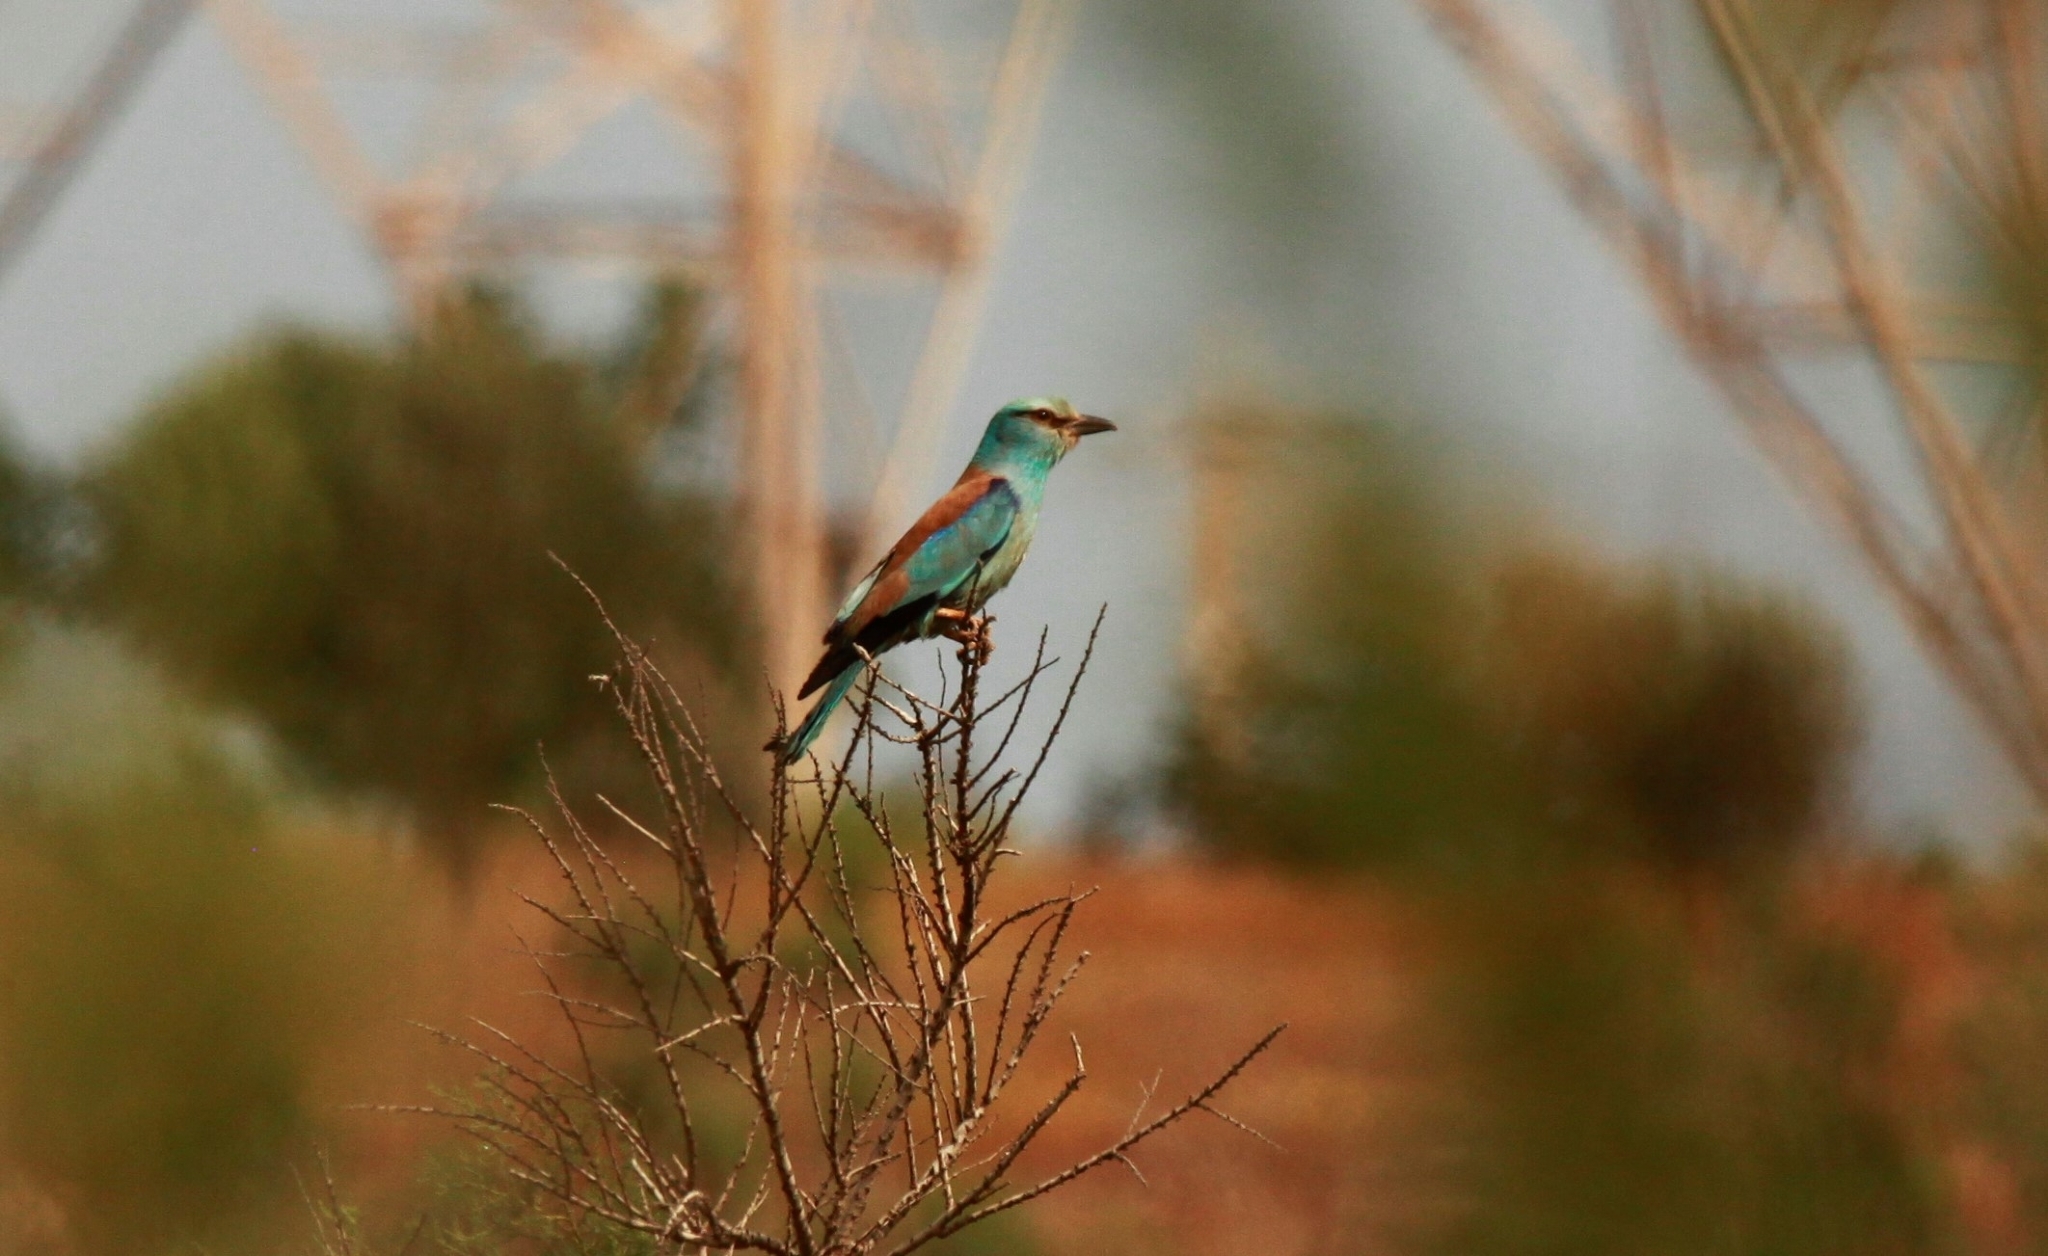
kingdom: Animalia
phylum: Chordata
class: Aves
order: Coraciiformes
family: Coraciidae
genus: Coracias
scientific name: Coracias garrulus
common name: European roller
